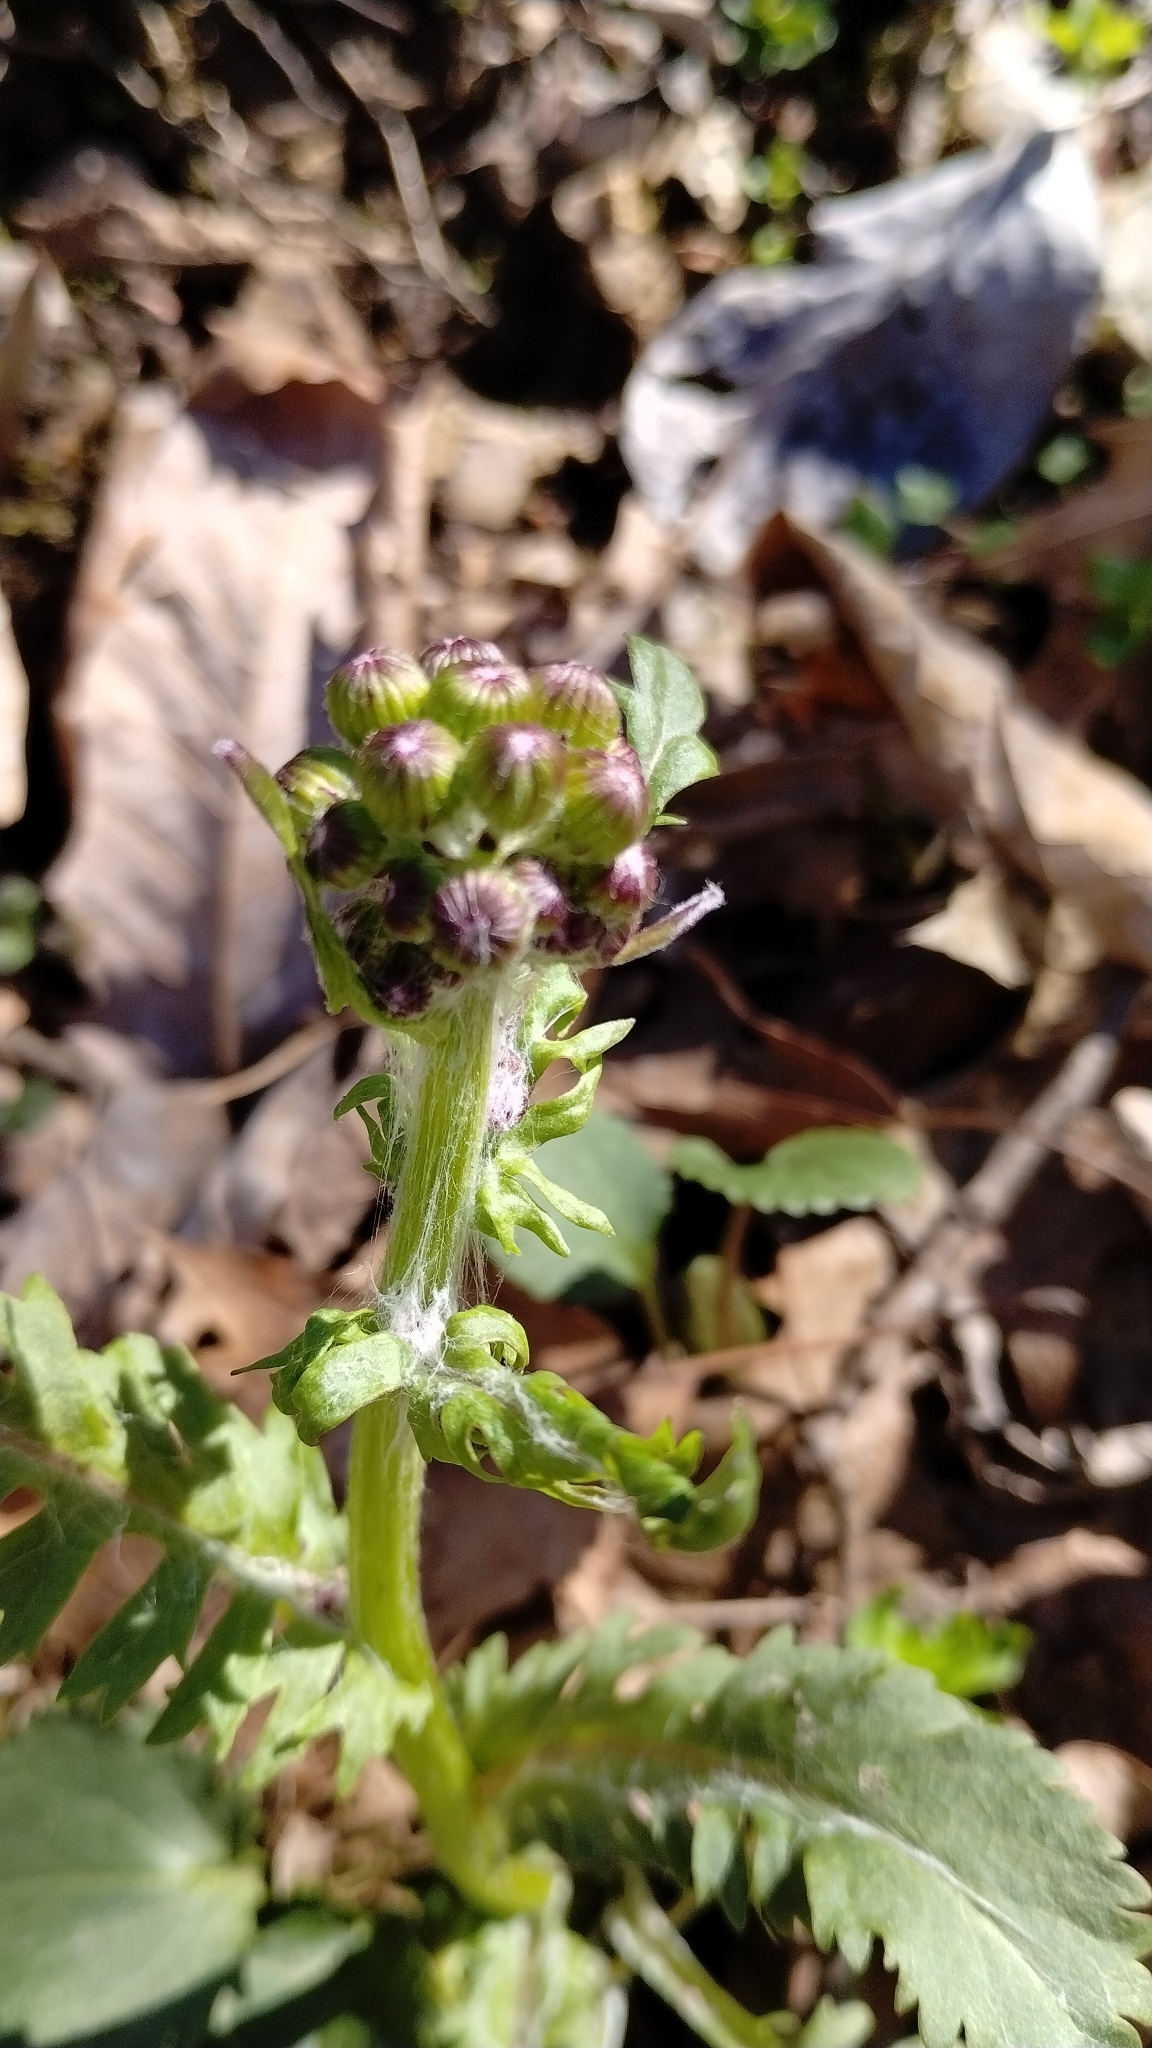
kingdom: Plantae
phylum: Tracheophyta
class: Magnoliopsida
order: Asterales
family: Asteraceae
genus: Packera
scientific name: Packera obovata
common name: Round-leaf ragwort
